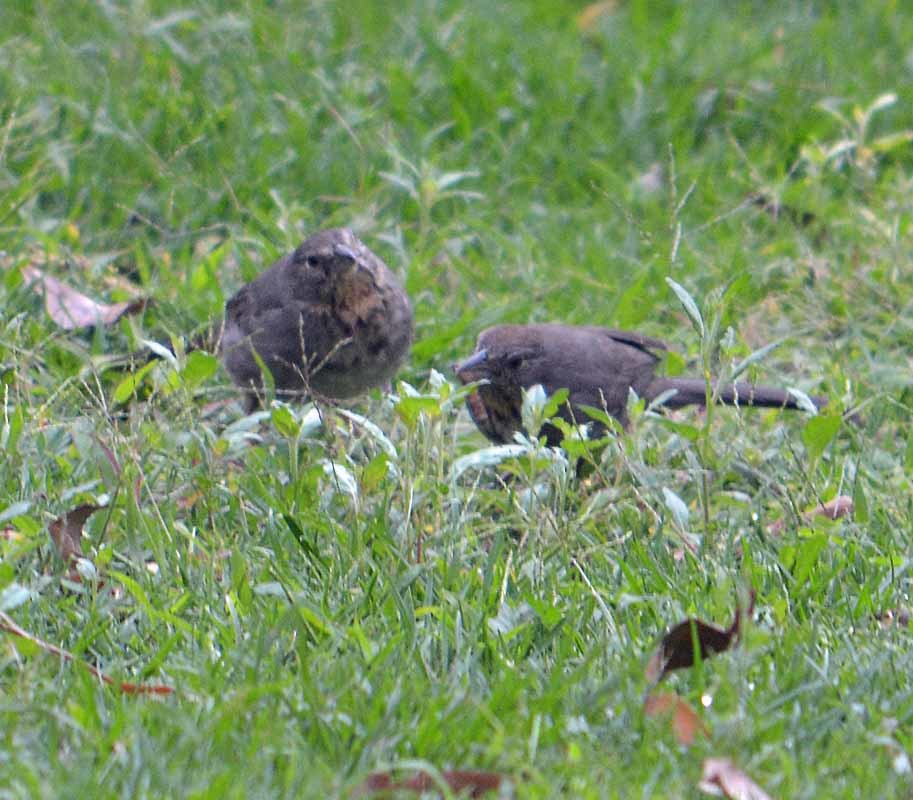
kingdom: Animalia
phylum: Chordata
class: Aves
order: Passeriformes
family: Passerellidae
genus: Melozone
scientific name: Melozone fusca
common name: Canyon towhee
